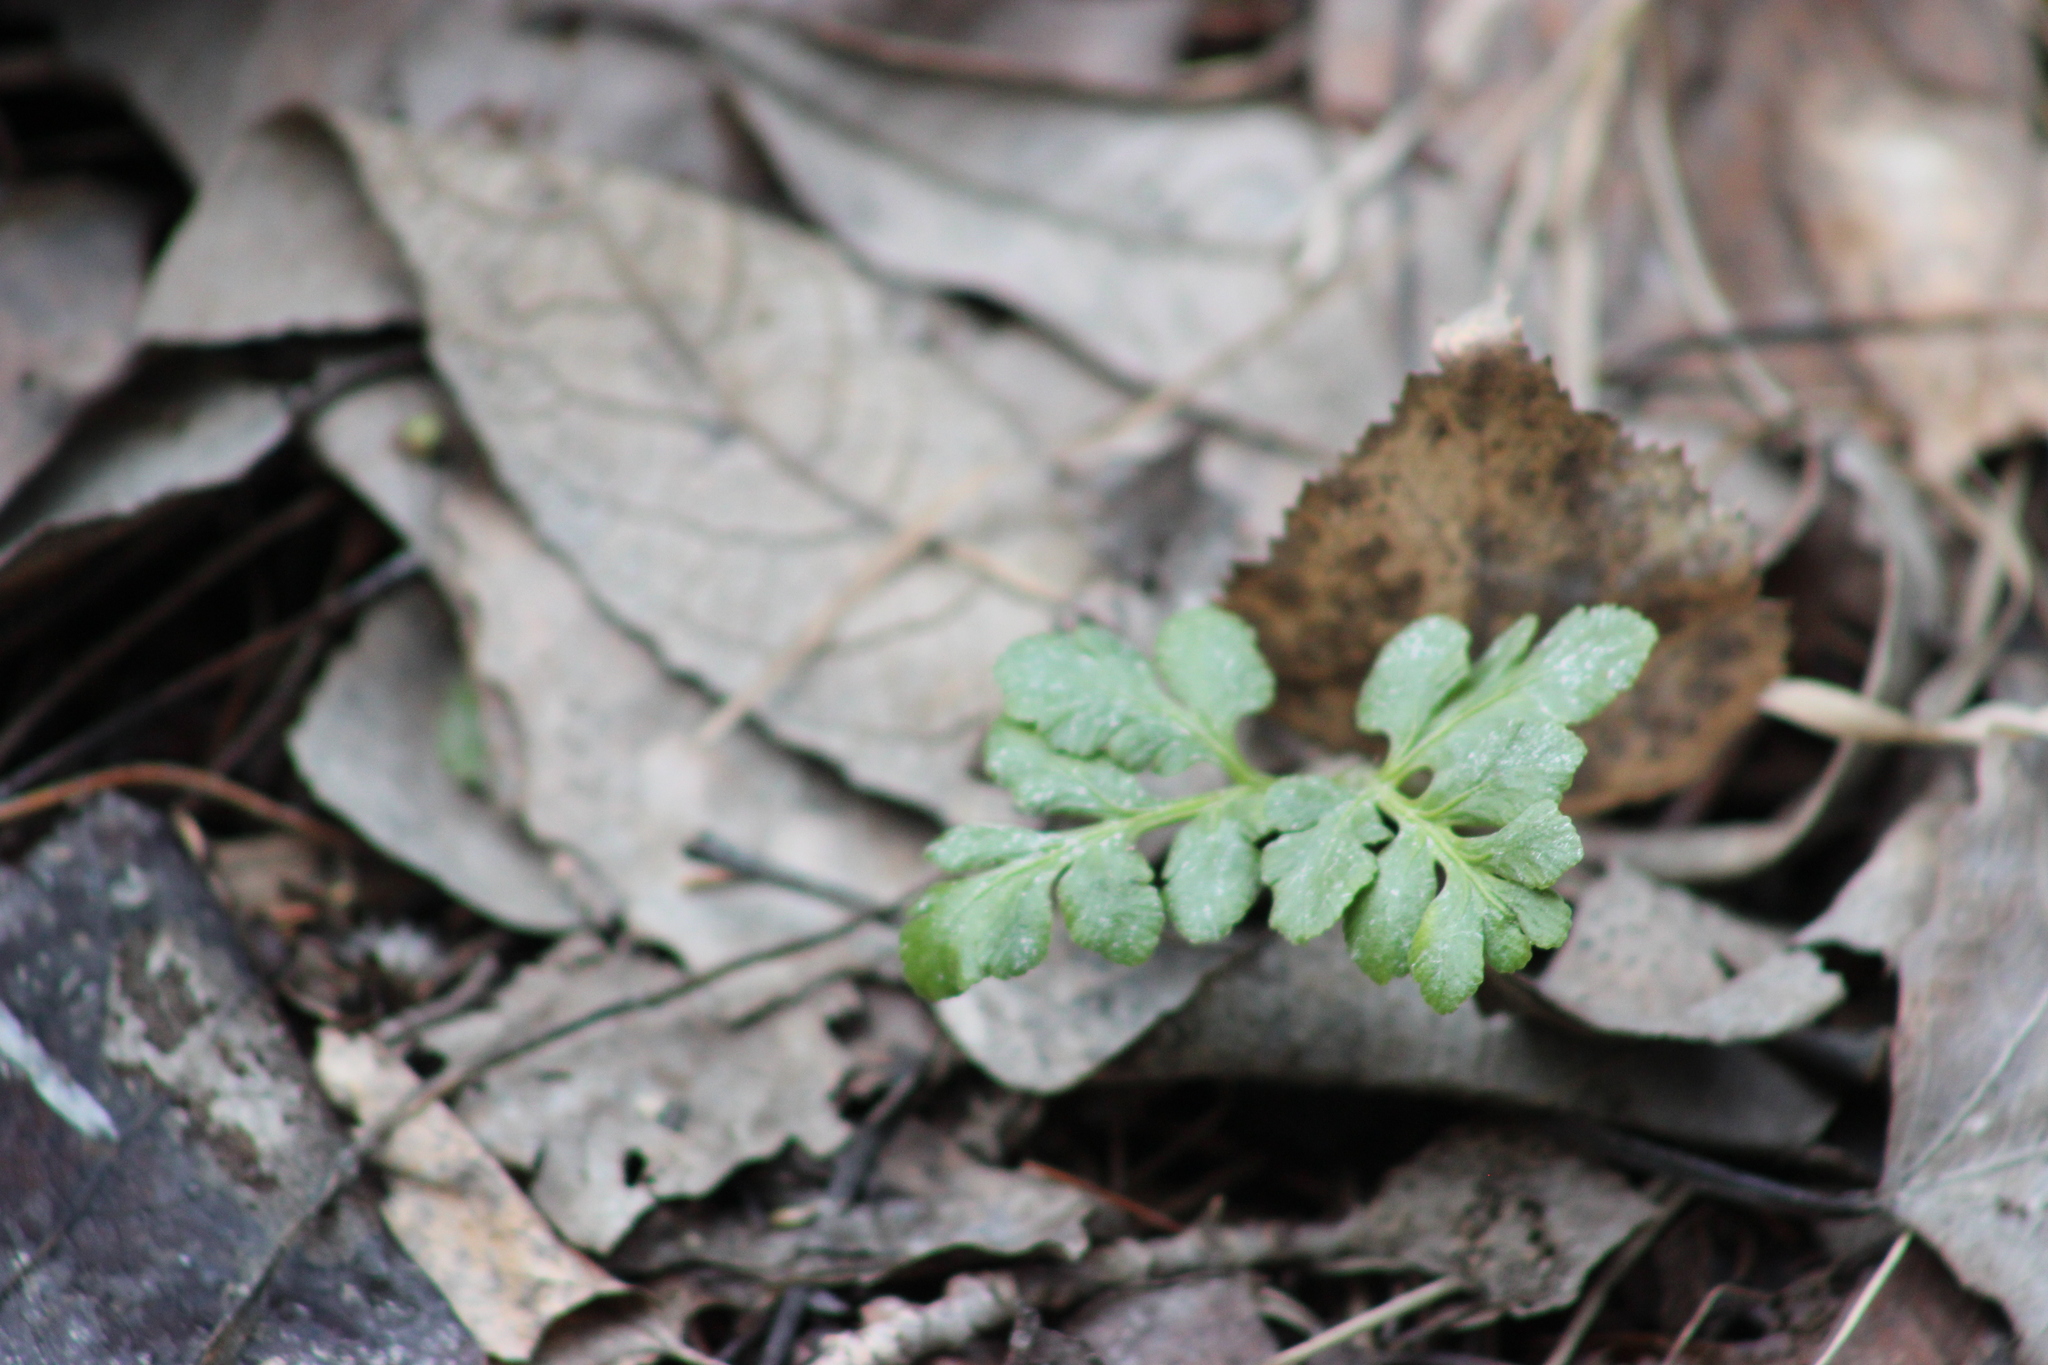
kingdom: Plantae
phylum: Tracheophyta
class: Polypodiopsida
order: Ophioglossales
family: Ophioglossaceae
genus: Sceptridium
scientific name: Sceptridium multifidum
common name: Leathery grape fern
